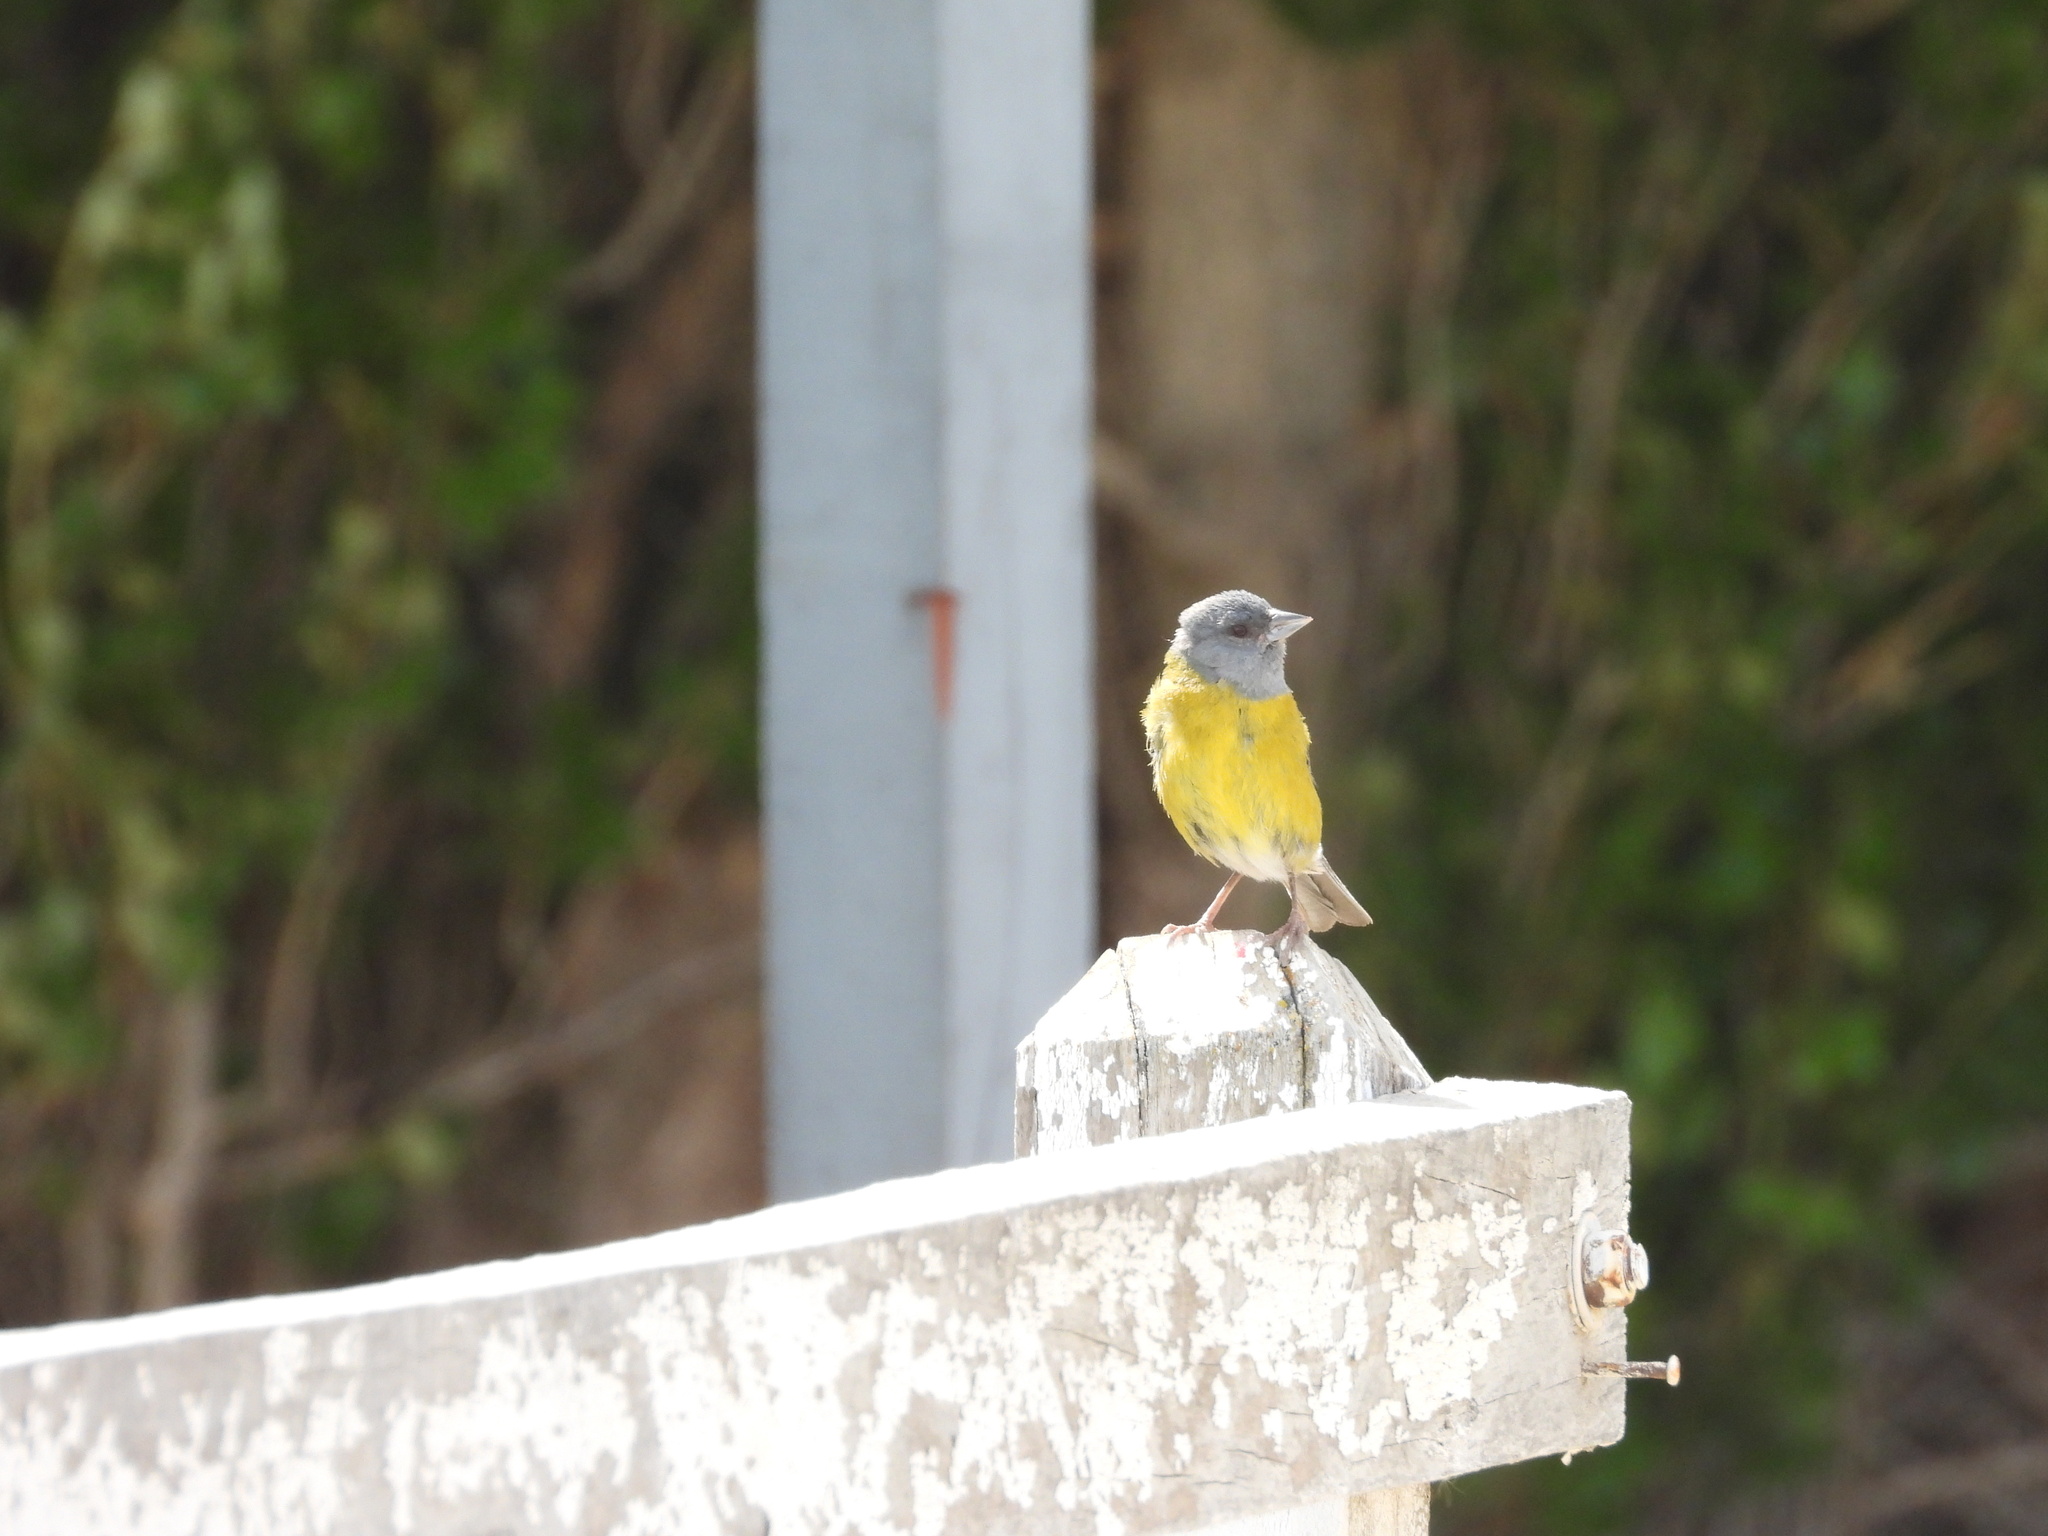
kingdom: Animalia
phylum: Chordata
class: Aves
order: Passeriformes
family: Thraupidae
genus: Phrygilus
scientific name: Phrygilus patagonicus
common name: Patagonian sierra finch
